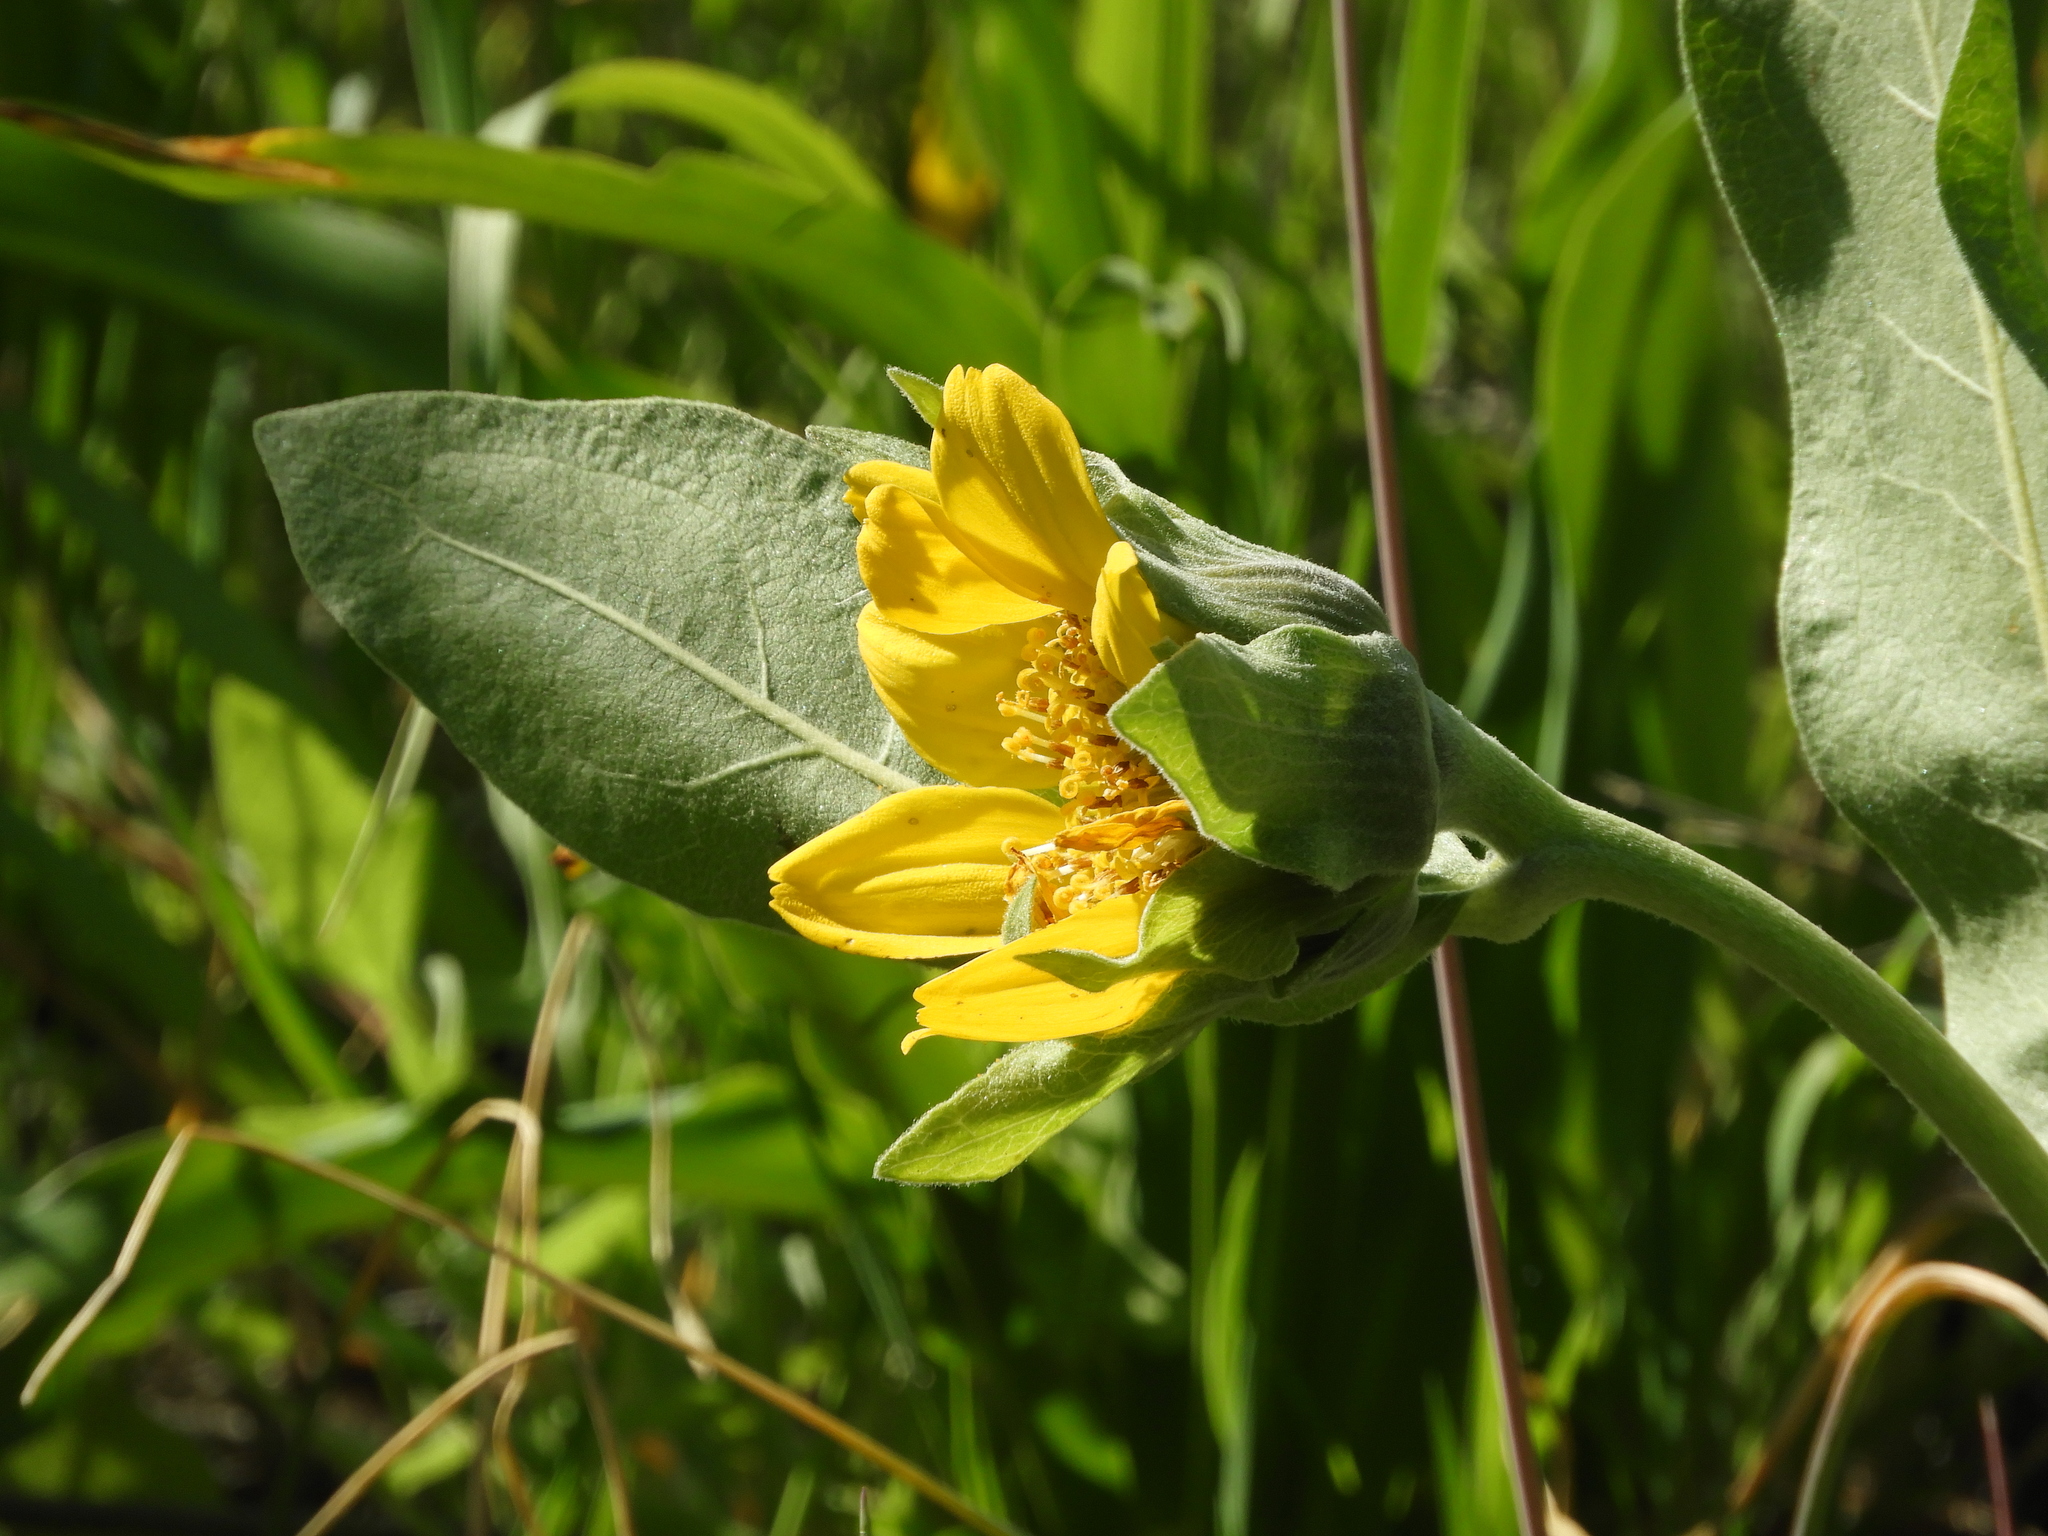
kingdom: Plantae
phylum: Tracheophyta
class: Magnoliopsida
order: Asterales
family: Asteraceae
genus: Wyethia
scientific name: Wyethia helenioides
